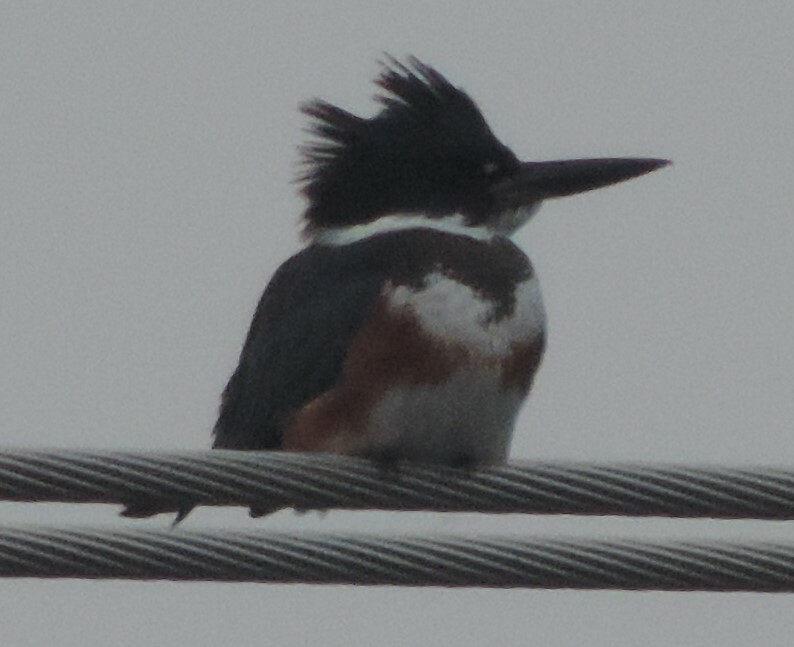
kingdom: Animalia
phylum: Chordata
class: Aves
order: Coraciiformes
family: Alcedinidae
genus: Megaceryle
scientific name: Megaceryle alcyon
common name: Belted kingfisher
